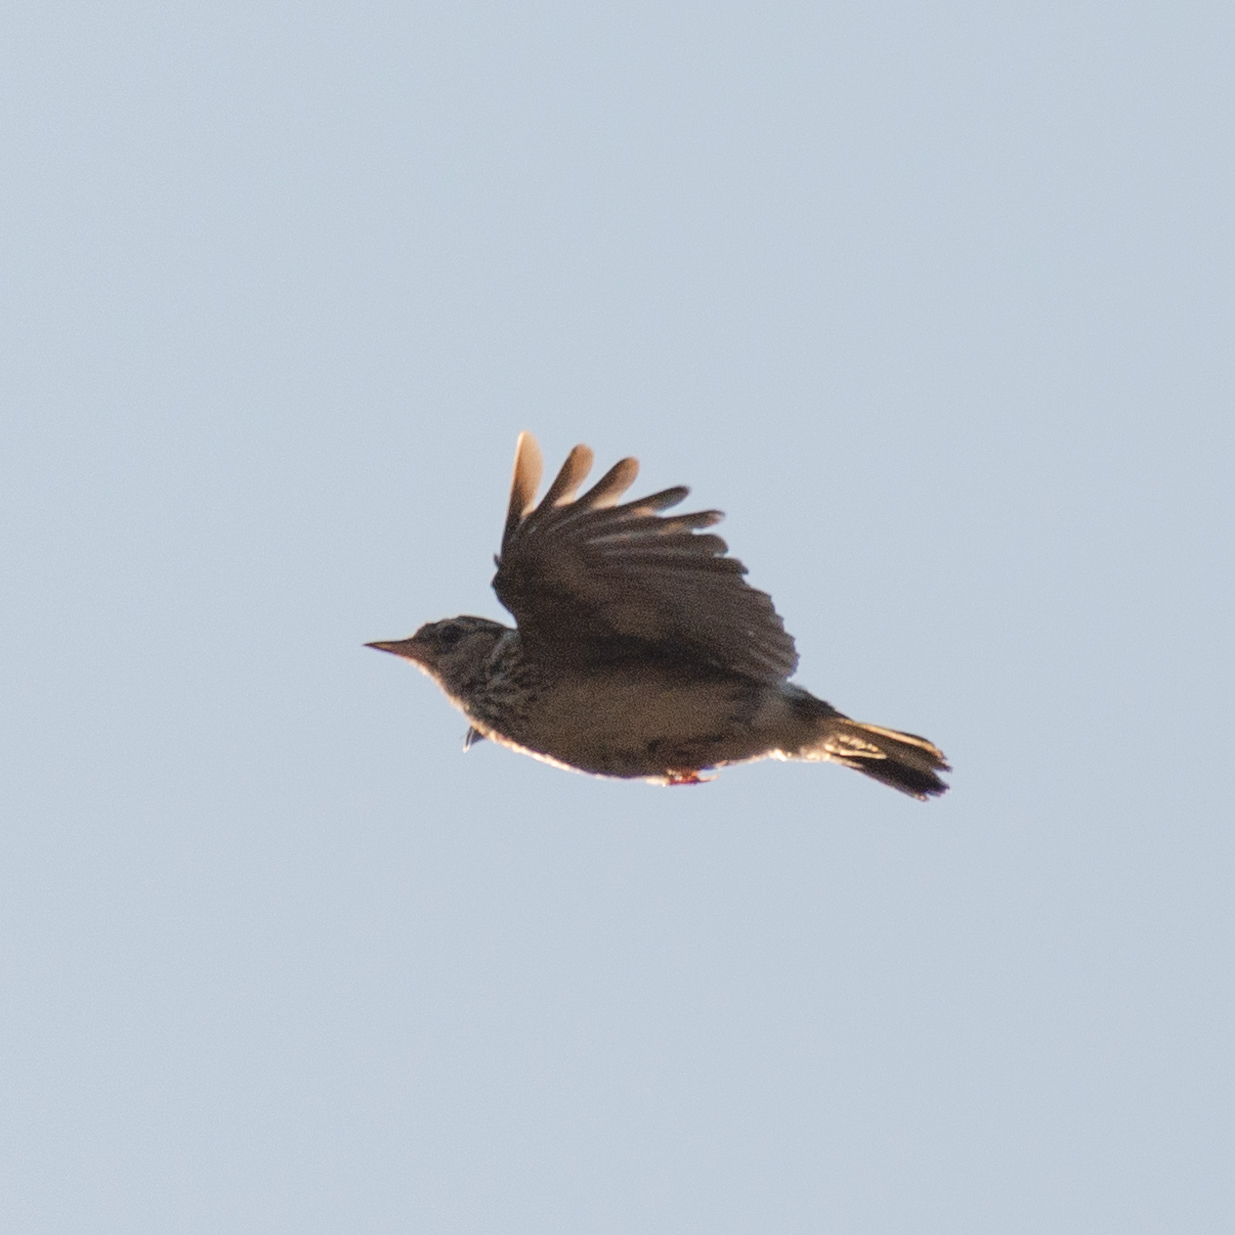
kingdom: Animalia
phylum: Chordata
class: Aves
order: Passeriformes
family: Alaudidae
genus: Lullula
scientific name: Lullula arborea
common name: Woodlark
